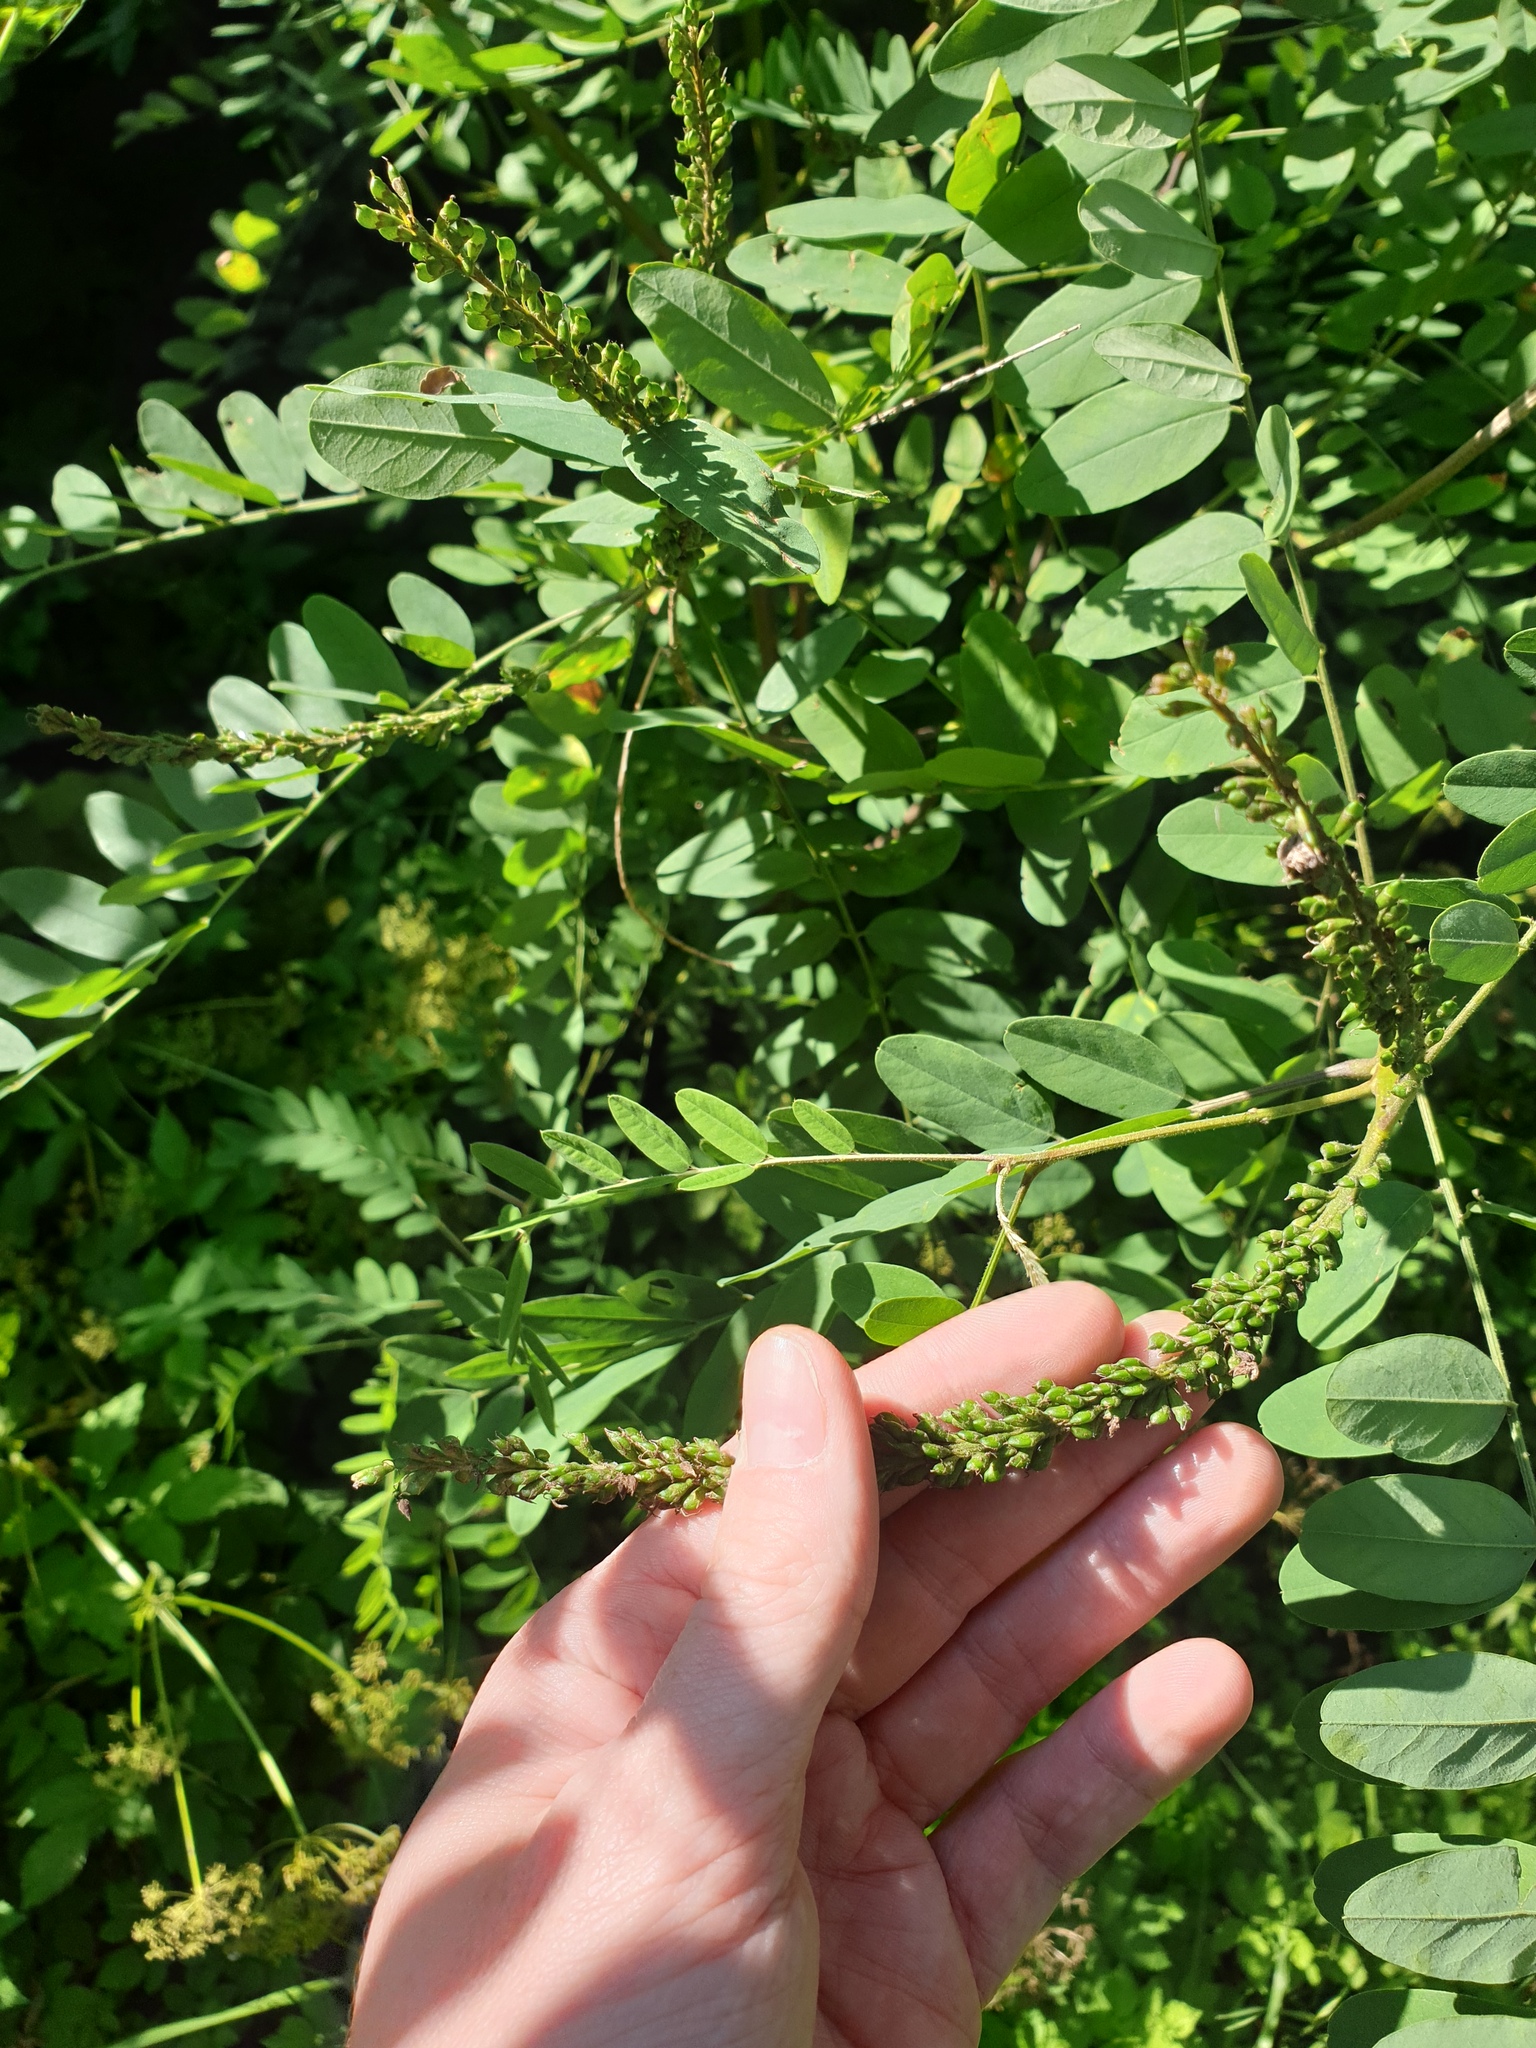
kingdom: Plantae
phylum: Tracheophyta
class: Magnoliopsida
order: Fabales
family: Fabaceae
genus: Amorpha
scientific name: Amorpha fruticosa
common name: False indigo
